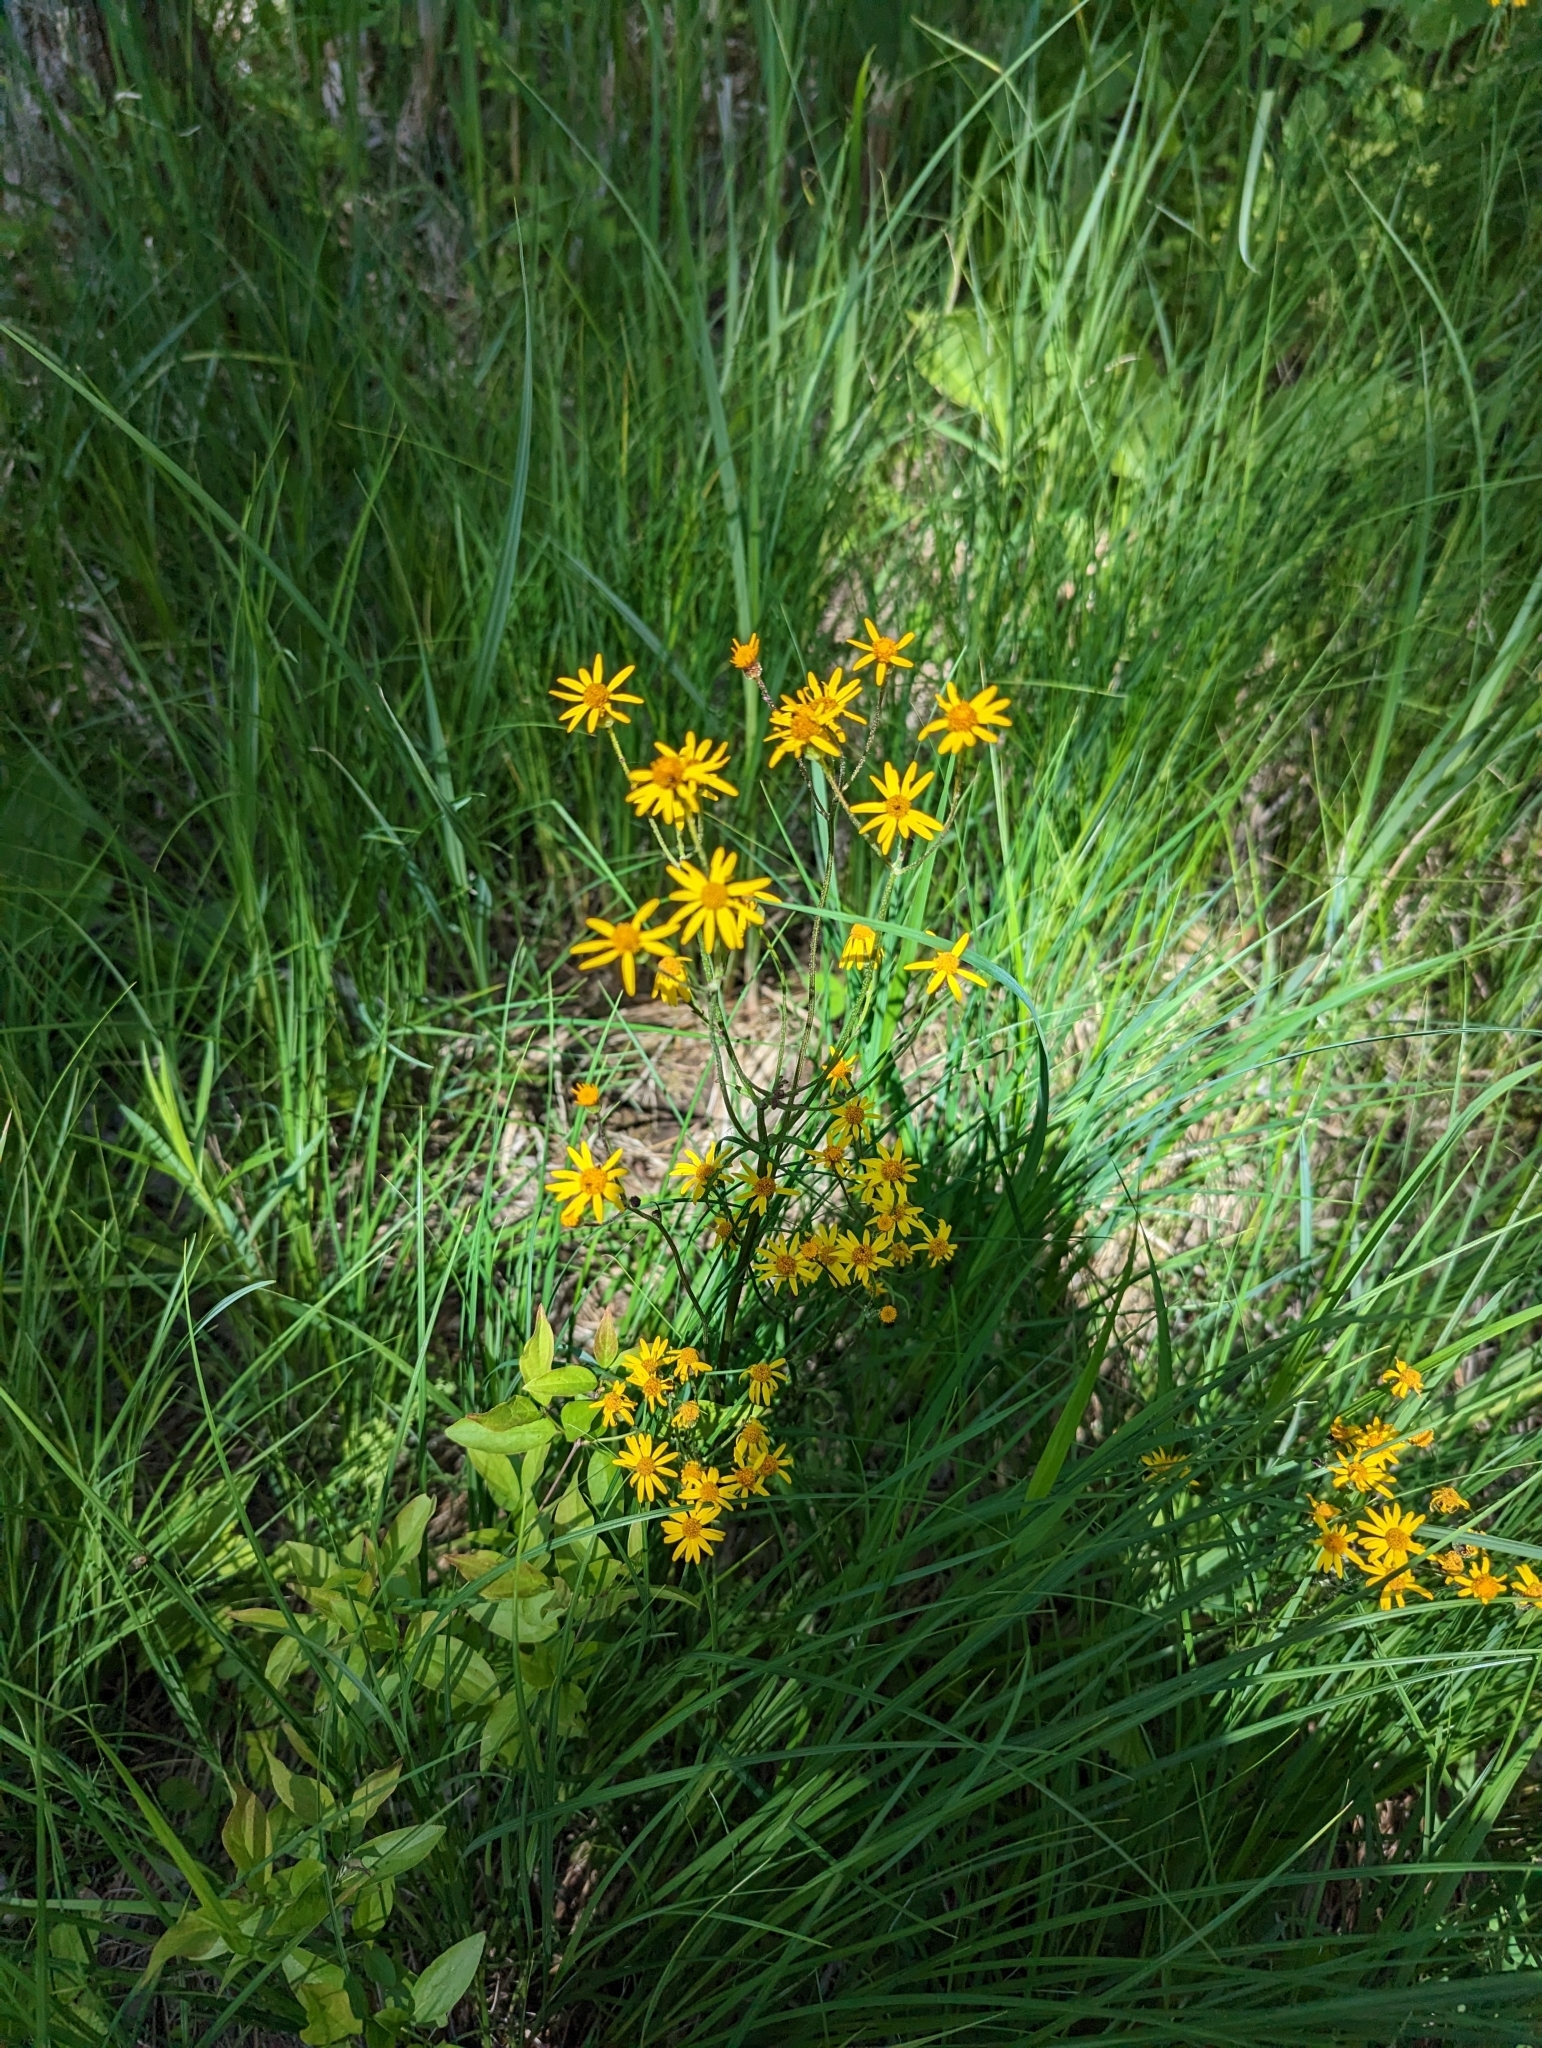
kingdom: Plantae
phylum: Tracheophyta
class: Magnoliopsida
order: Asterales
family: Asteraceae
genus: Packera
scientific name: Packera aurea
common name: Golden groundsel
